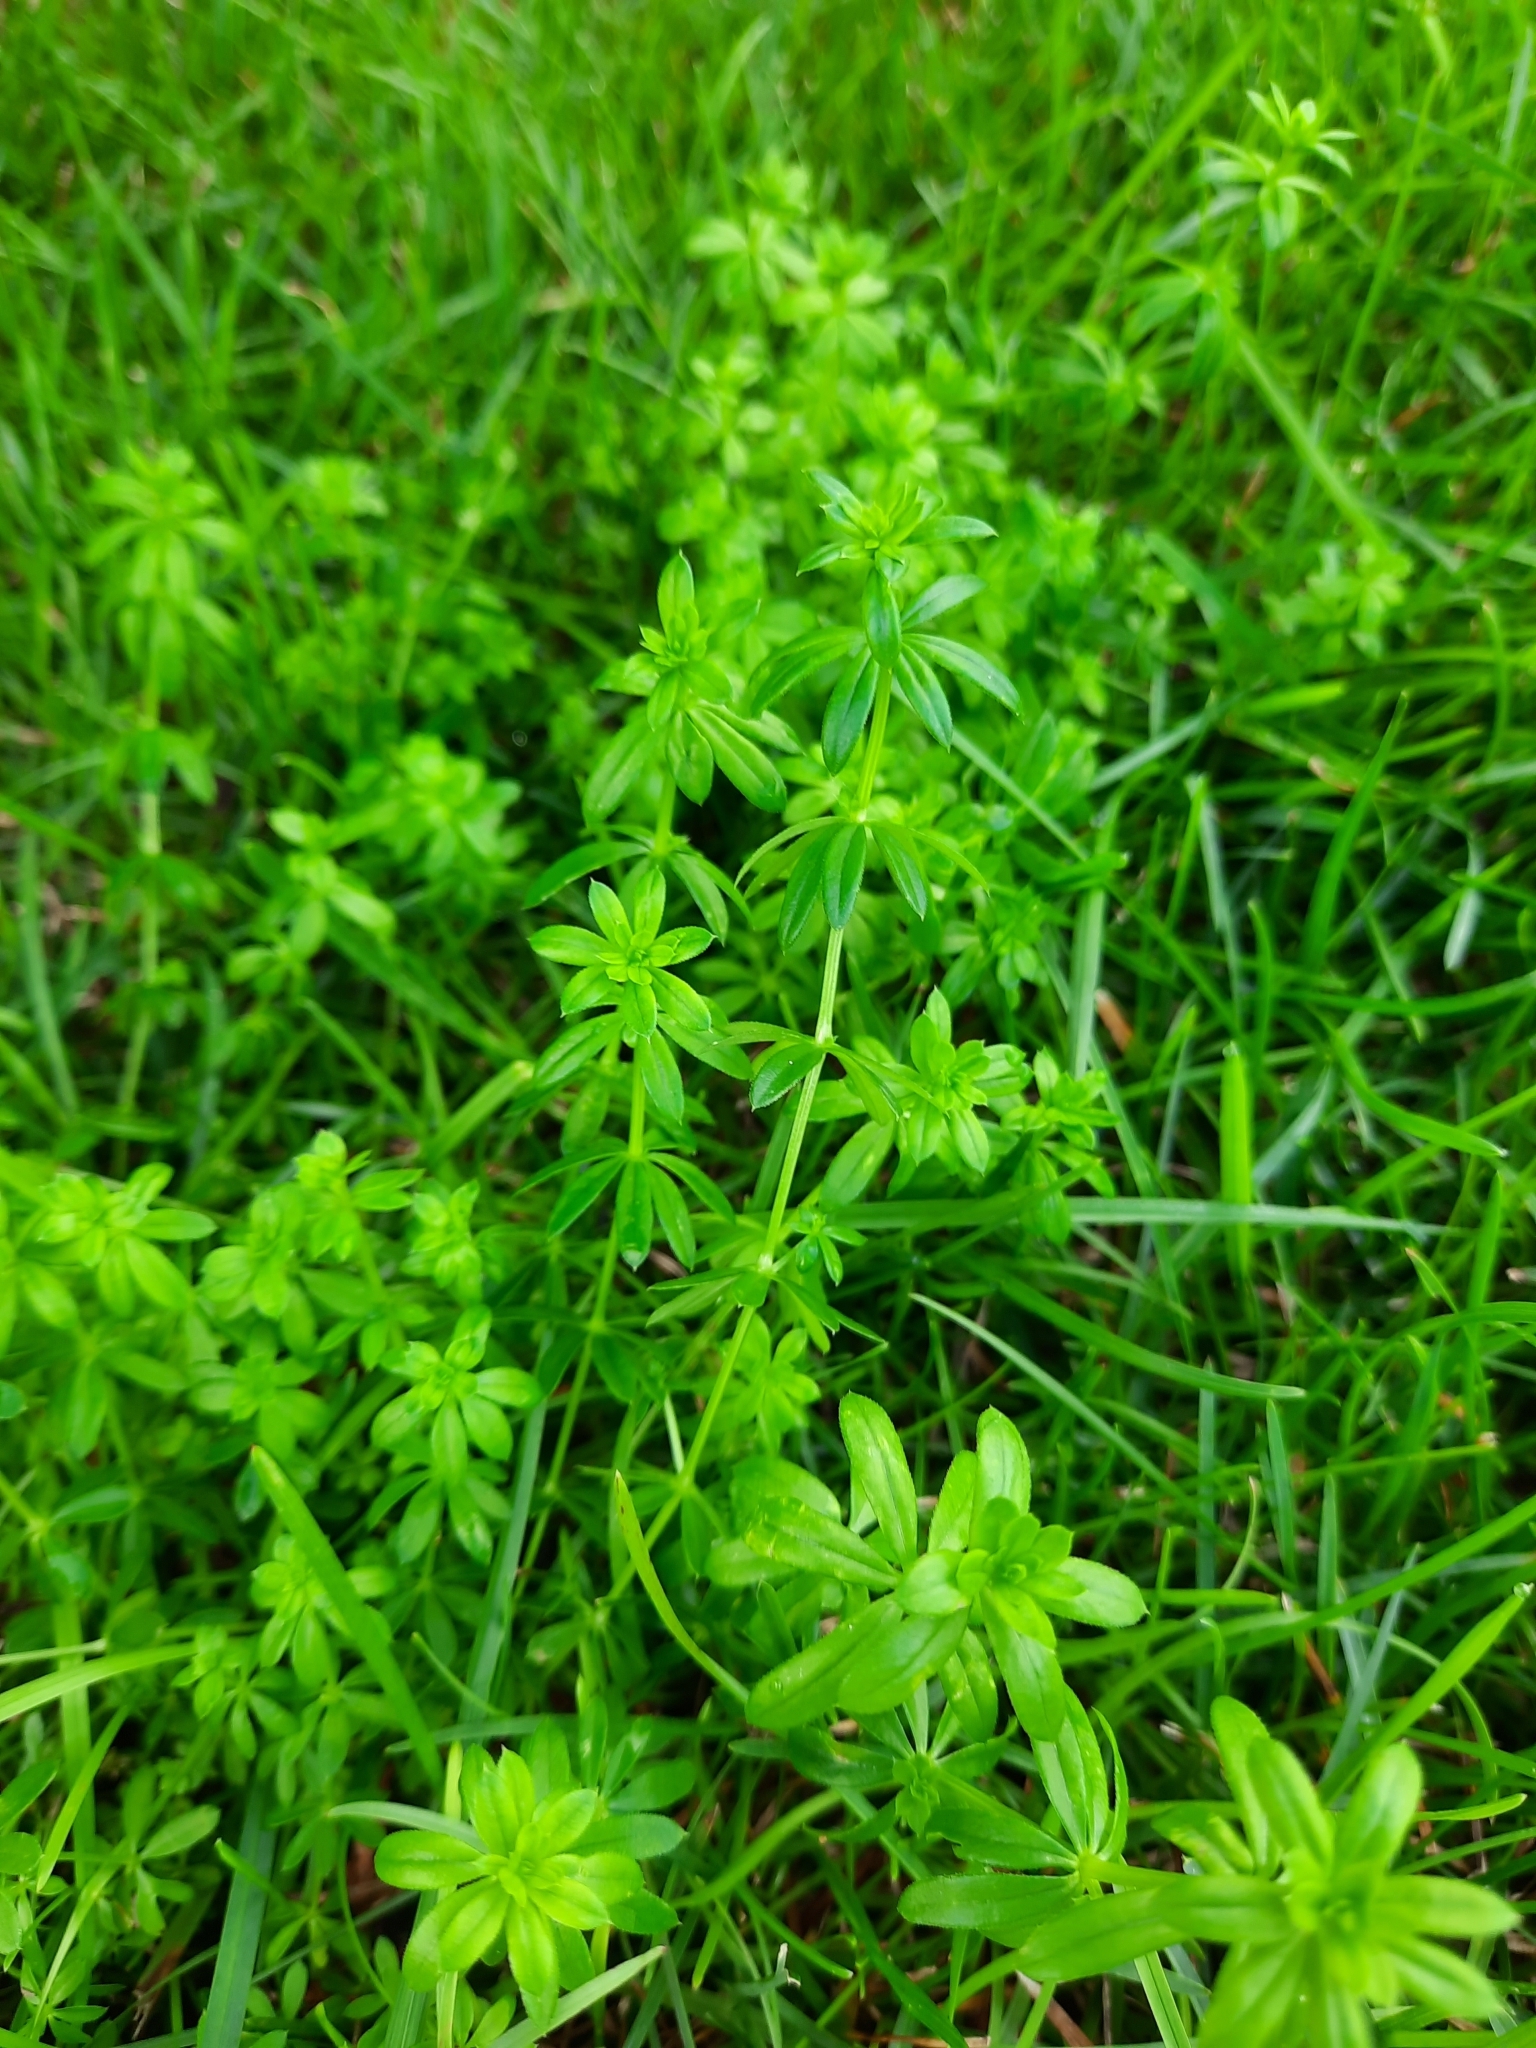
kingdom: Plantae
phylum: Tracheophyta
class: Magnoliopsida
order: Gentianales
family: Rubiaceae
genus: Galium
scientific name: Galium mollugo
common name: Hedge bedstraw
